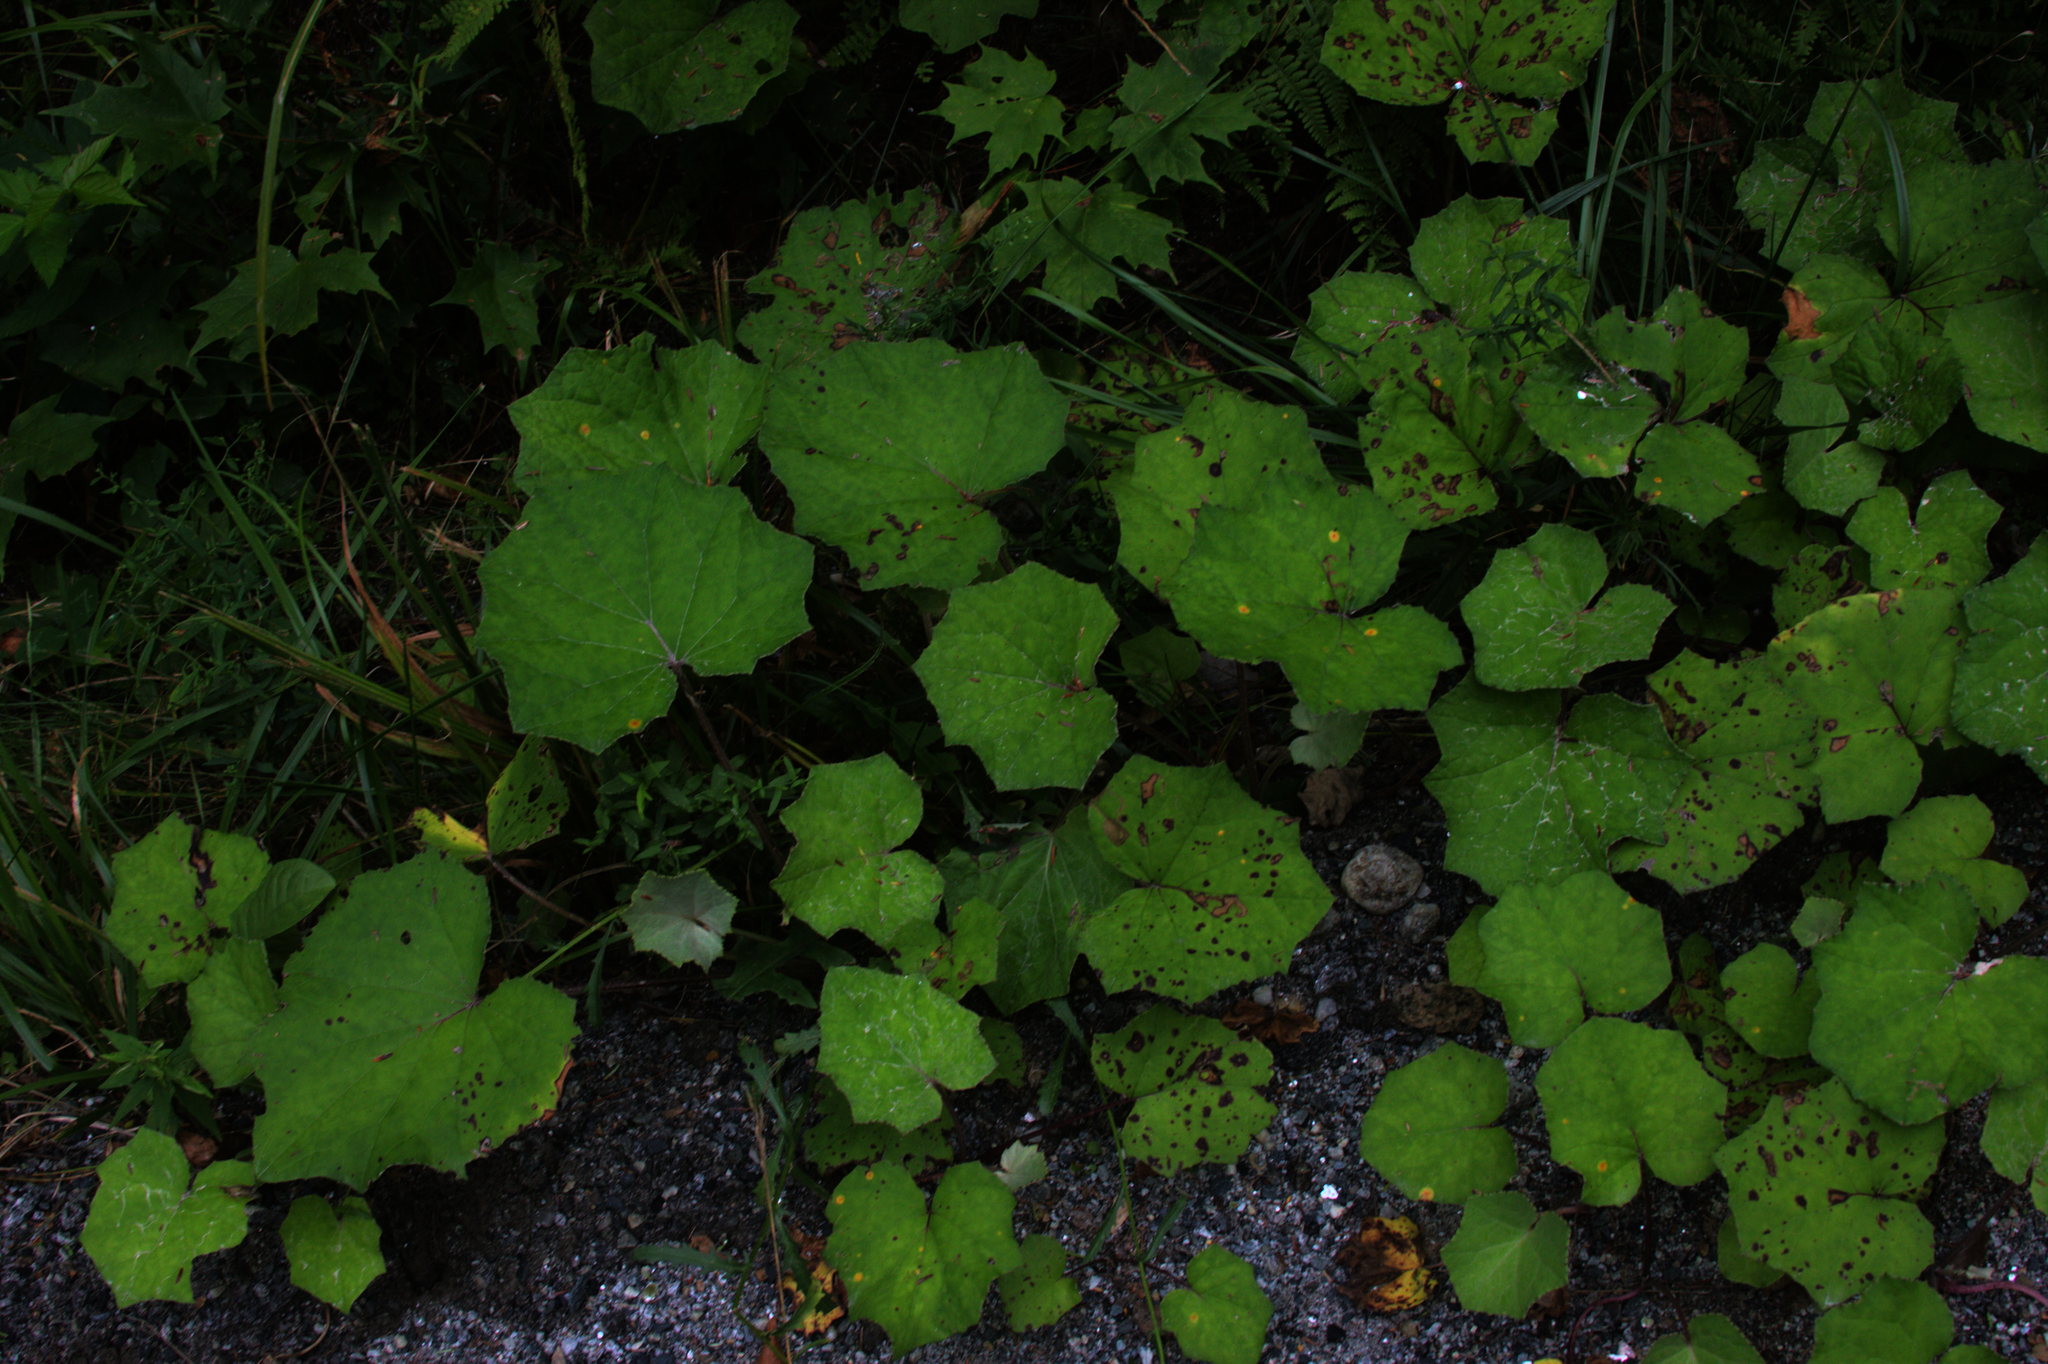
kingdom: Plantae
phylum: Tracheophyta
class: Magnoliopsida
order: Asterales
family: Asteraceae
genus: Tussilago
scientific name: Tussilago farfara
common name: Coltsfoot
